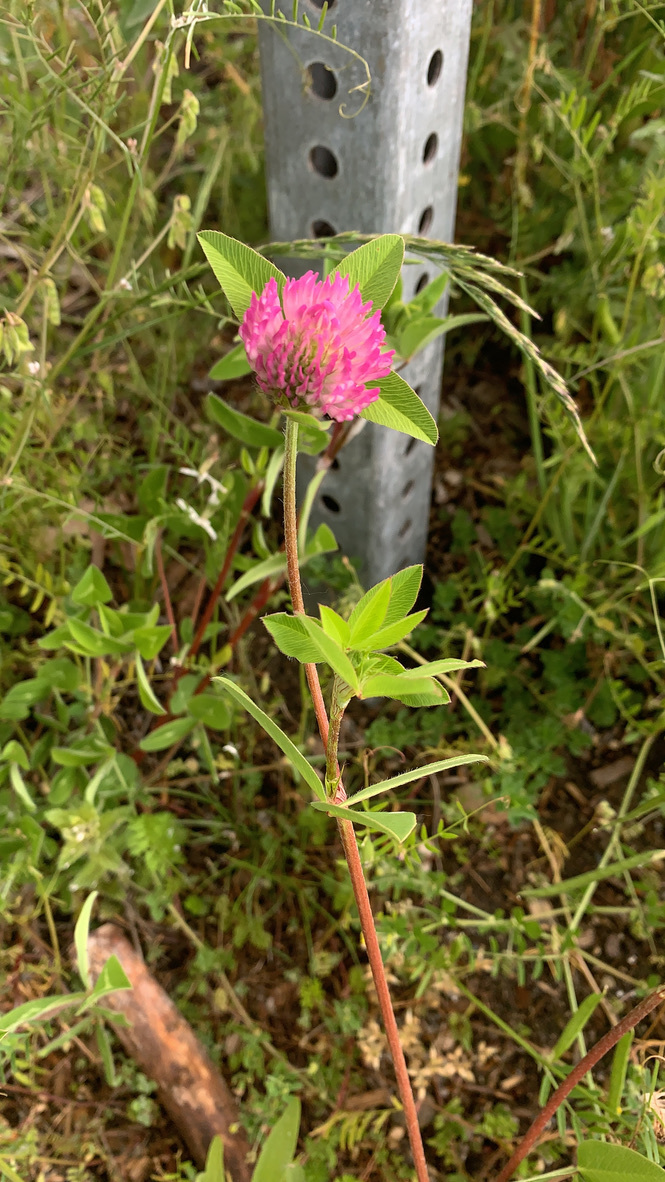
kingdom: Plantae
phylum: Tracheophyta
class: Magnoliopsida
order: Fabales
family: Fabaceae
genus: Trifolium
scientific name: Trifolium pratense
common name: Red clover
